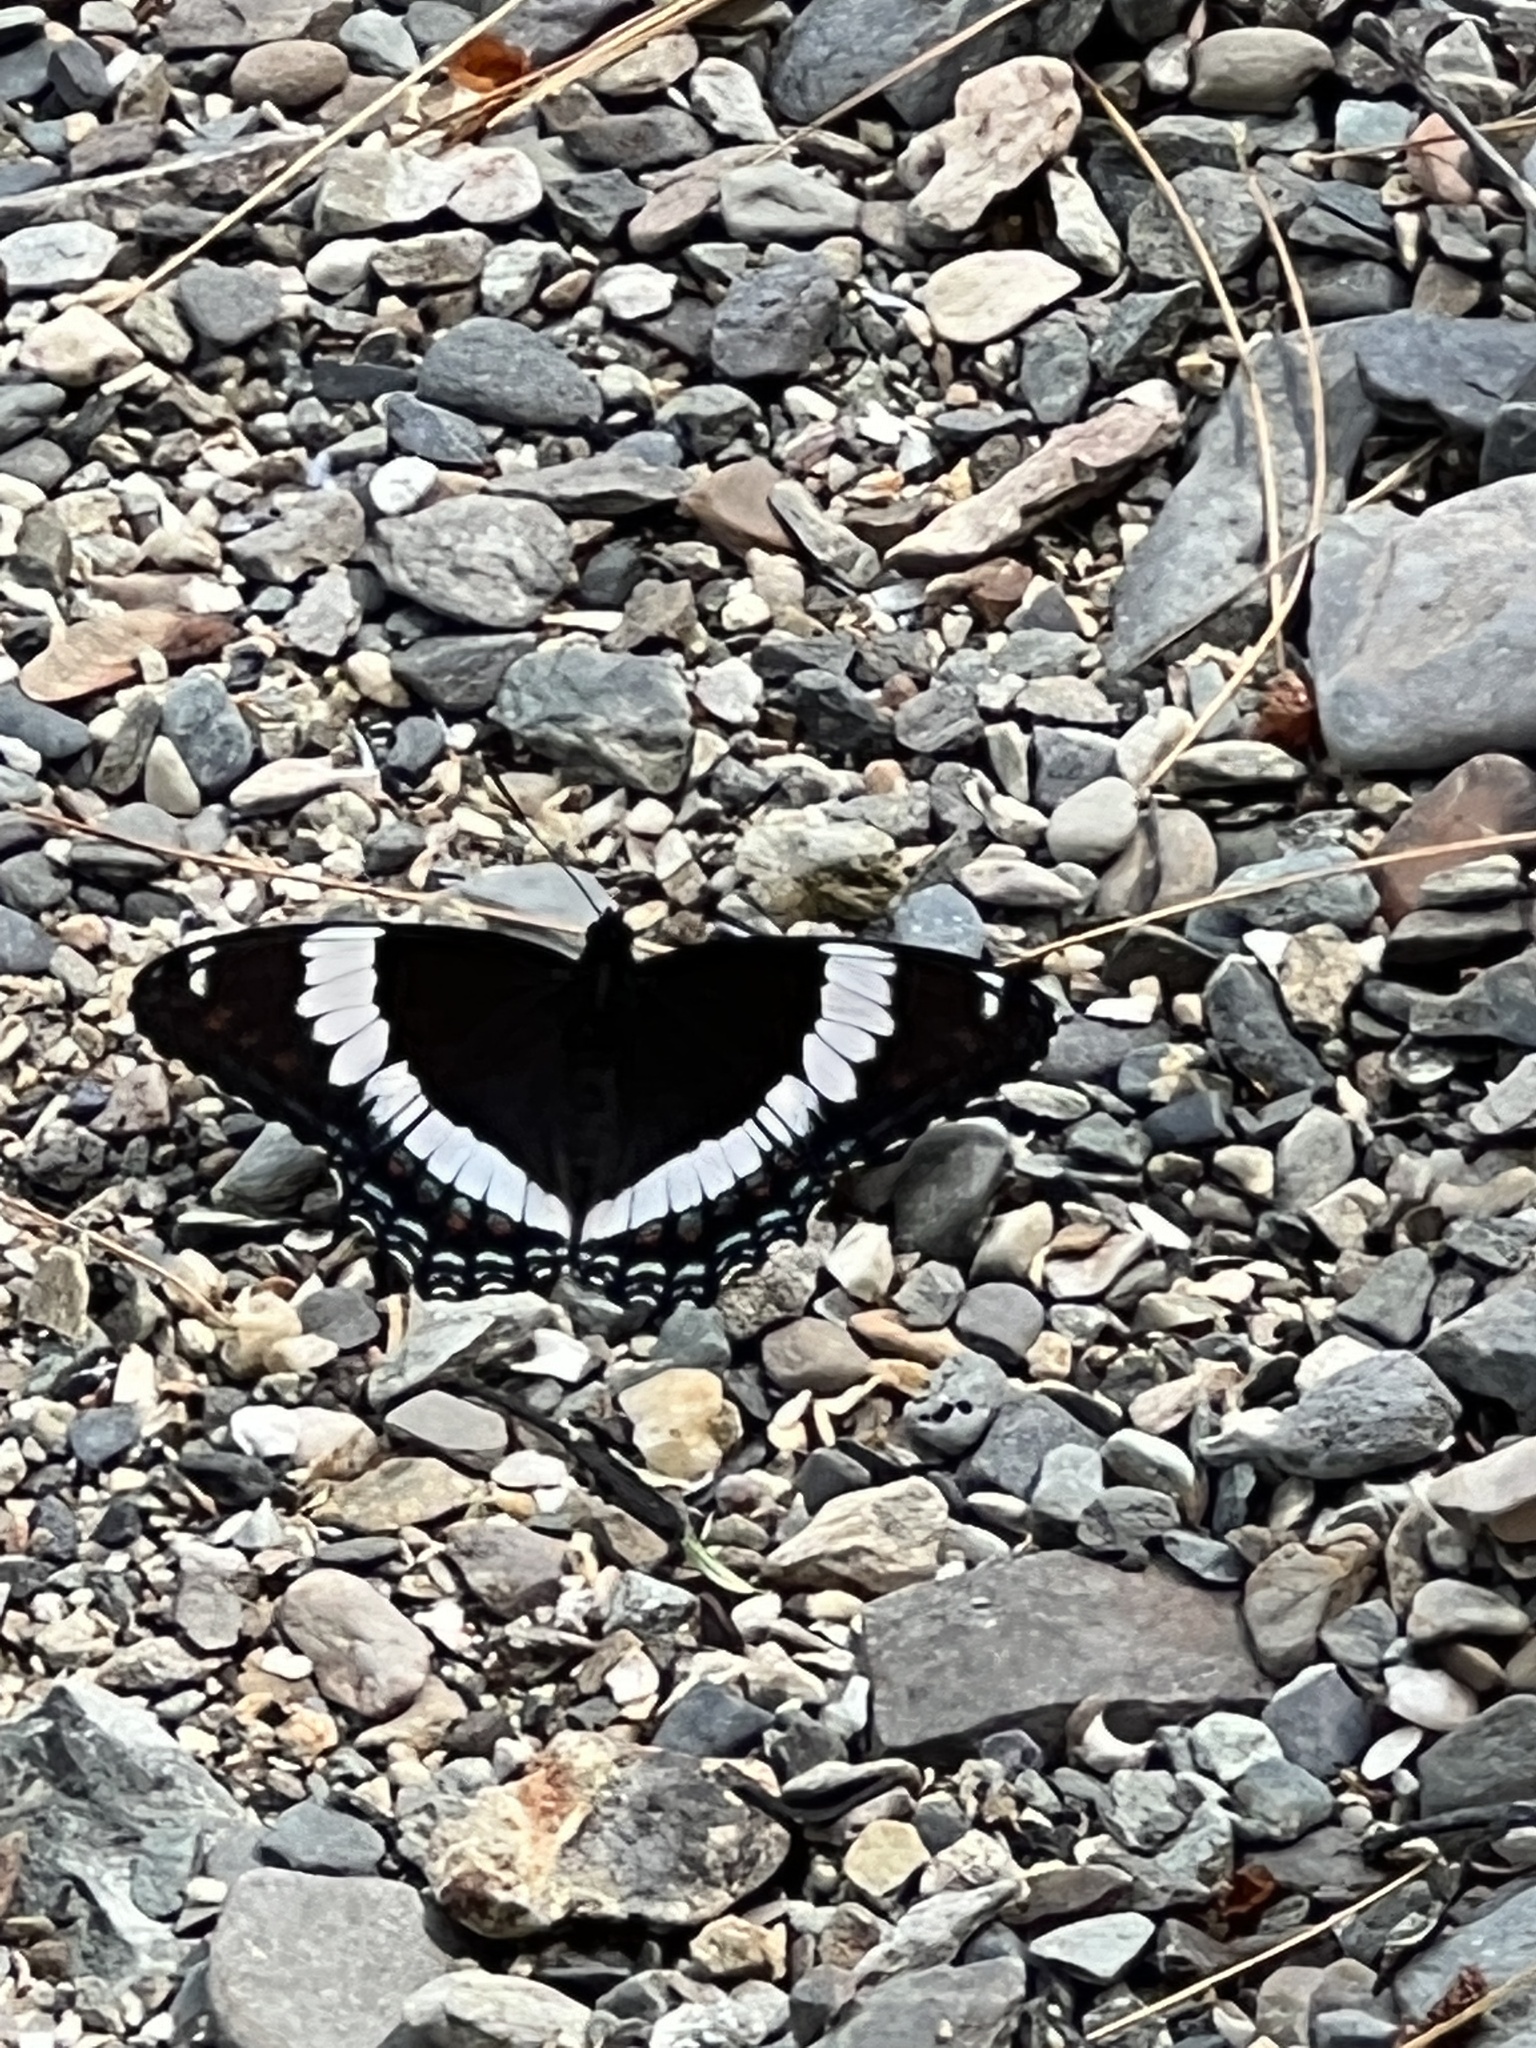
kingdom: Animalia
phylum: Arthropoda
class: Insecta
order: Lepidoptera
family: Nymphalidae
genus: Limenitis
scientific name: Limenitis arthemis
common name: Red-spotted admiral
